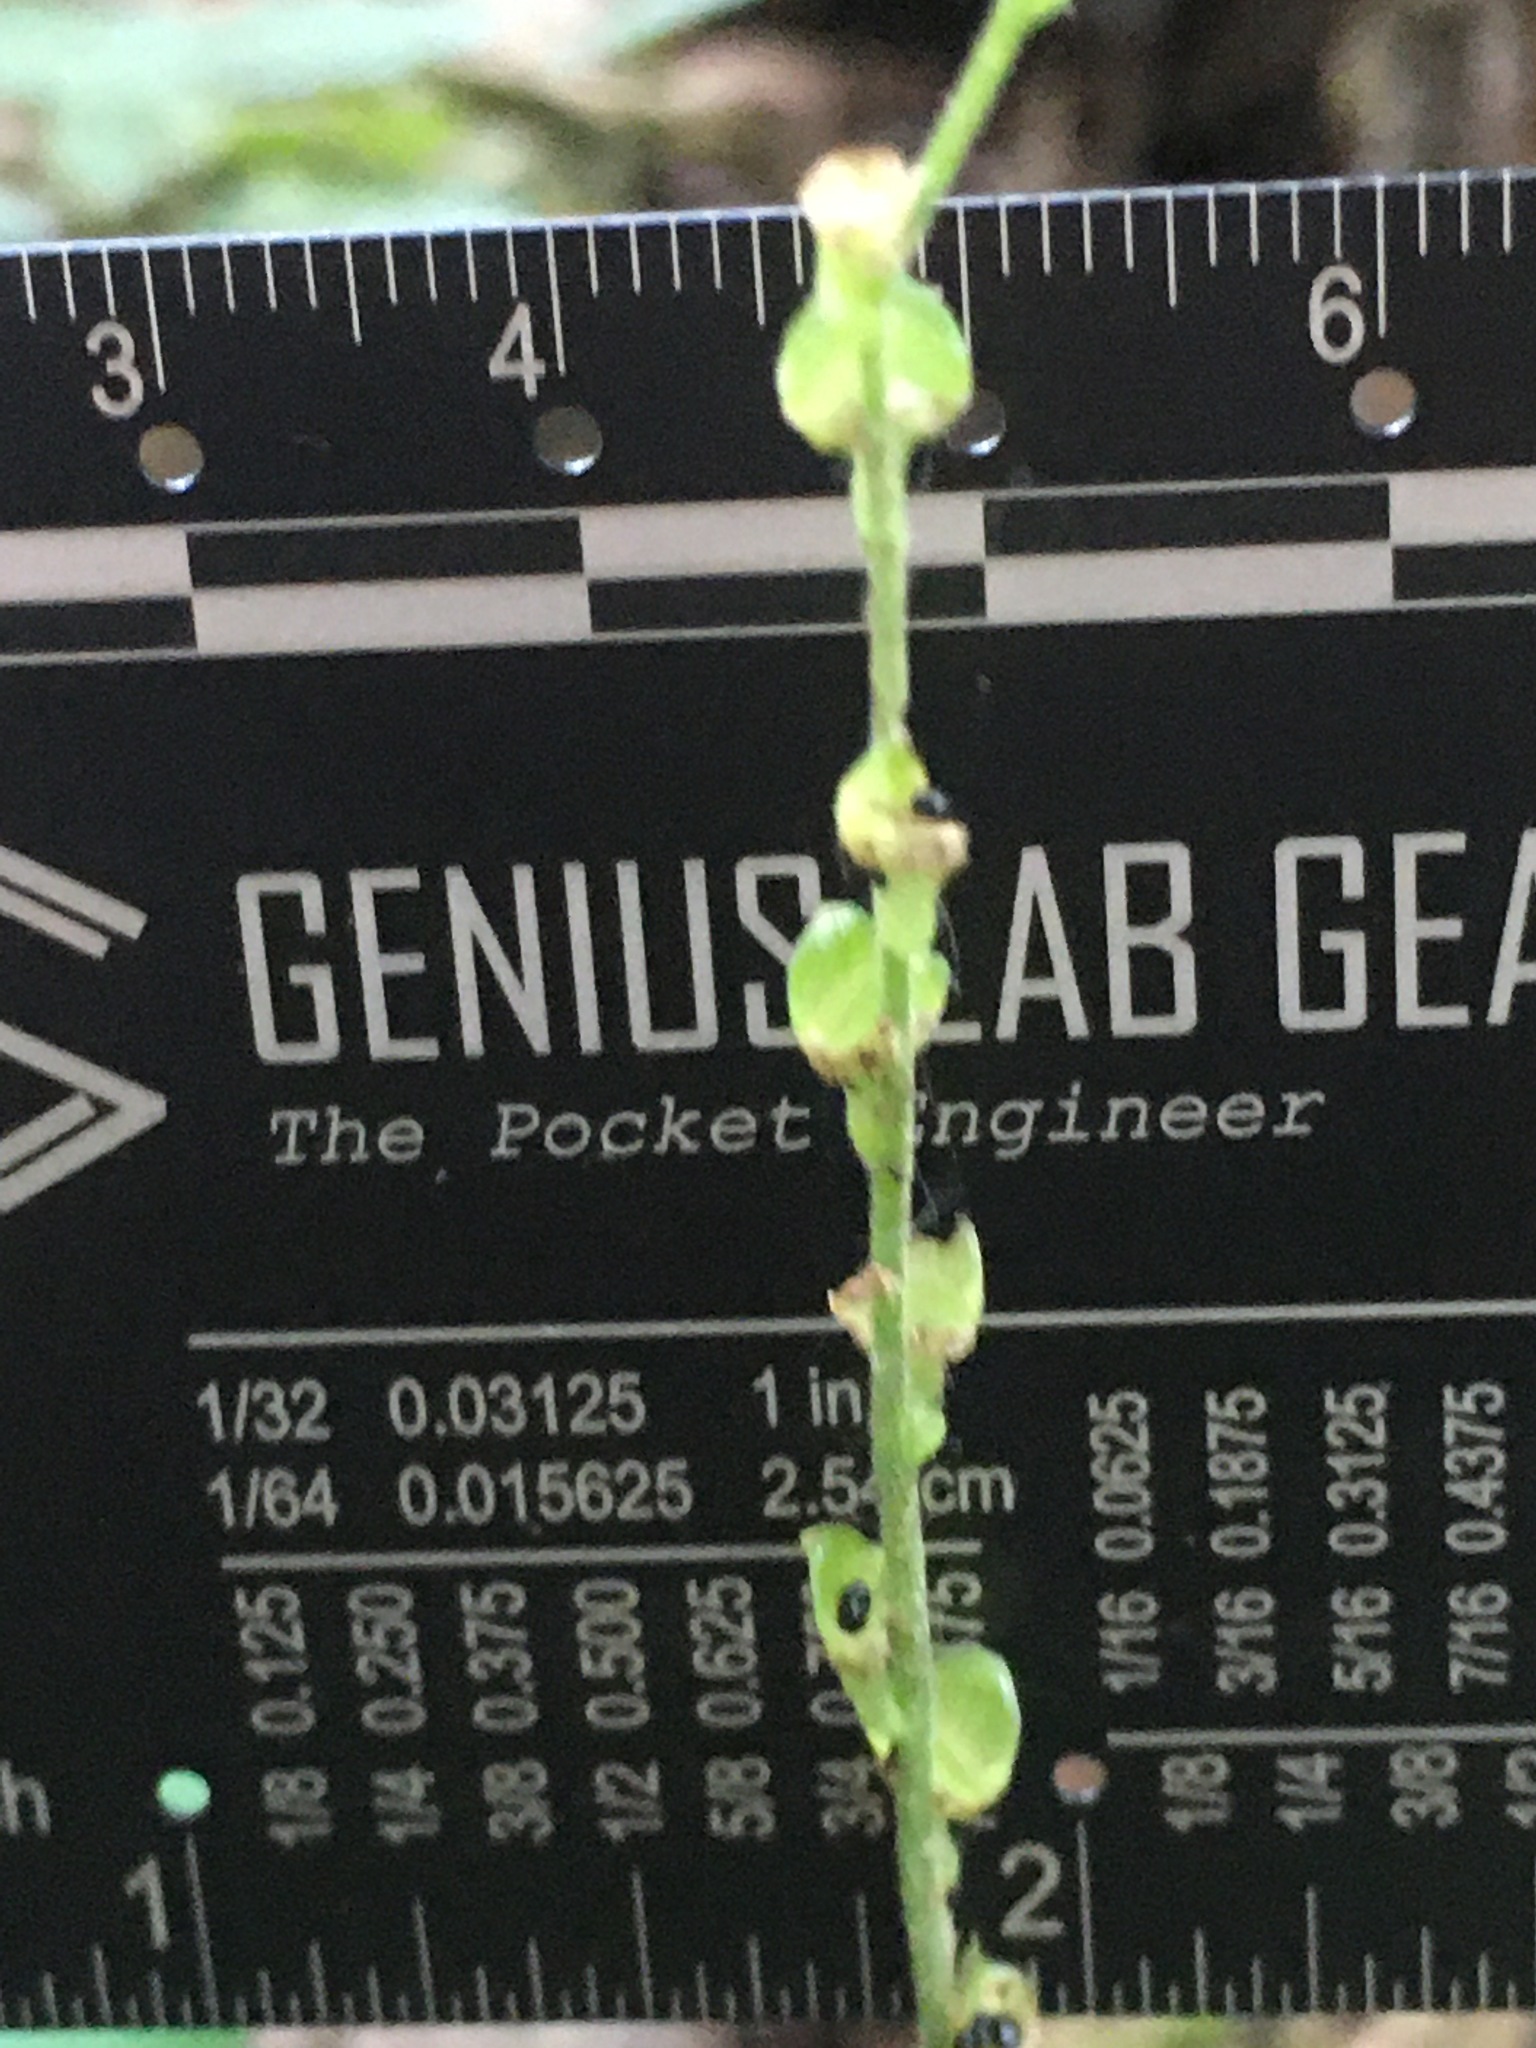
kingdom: Plantae
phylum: Tracheophyta
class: Magnoliopsida
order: Saxifragales
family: Saxifragaceae
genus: Mitella
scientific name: Mitella diphylla
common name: Coolwort
